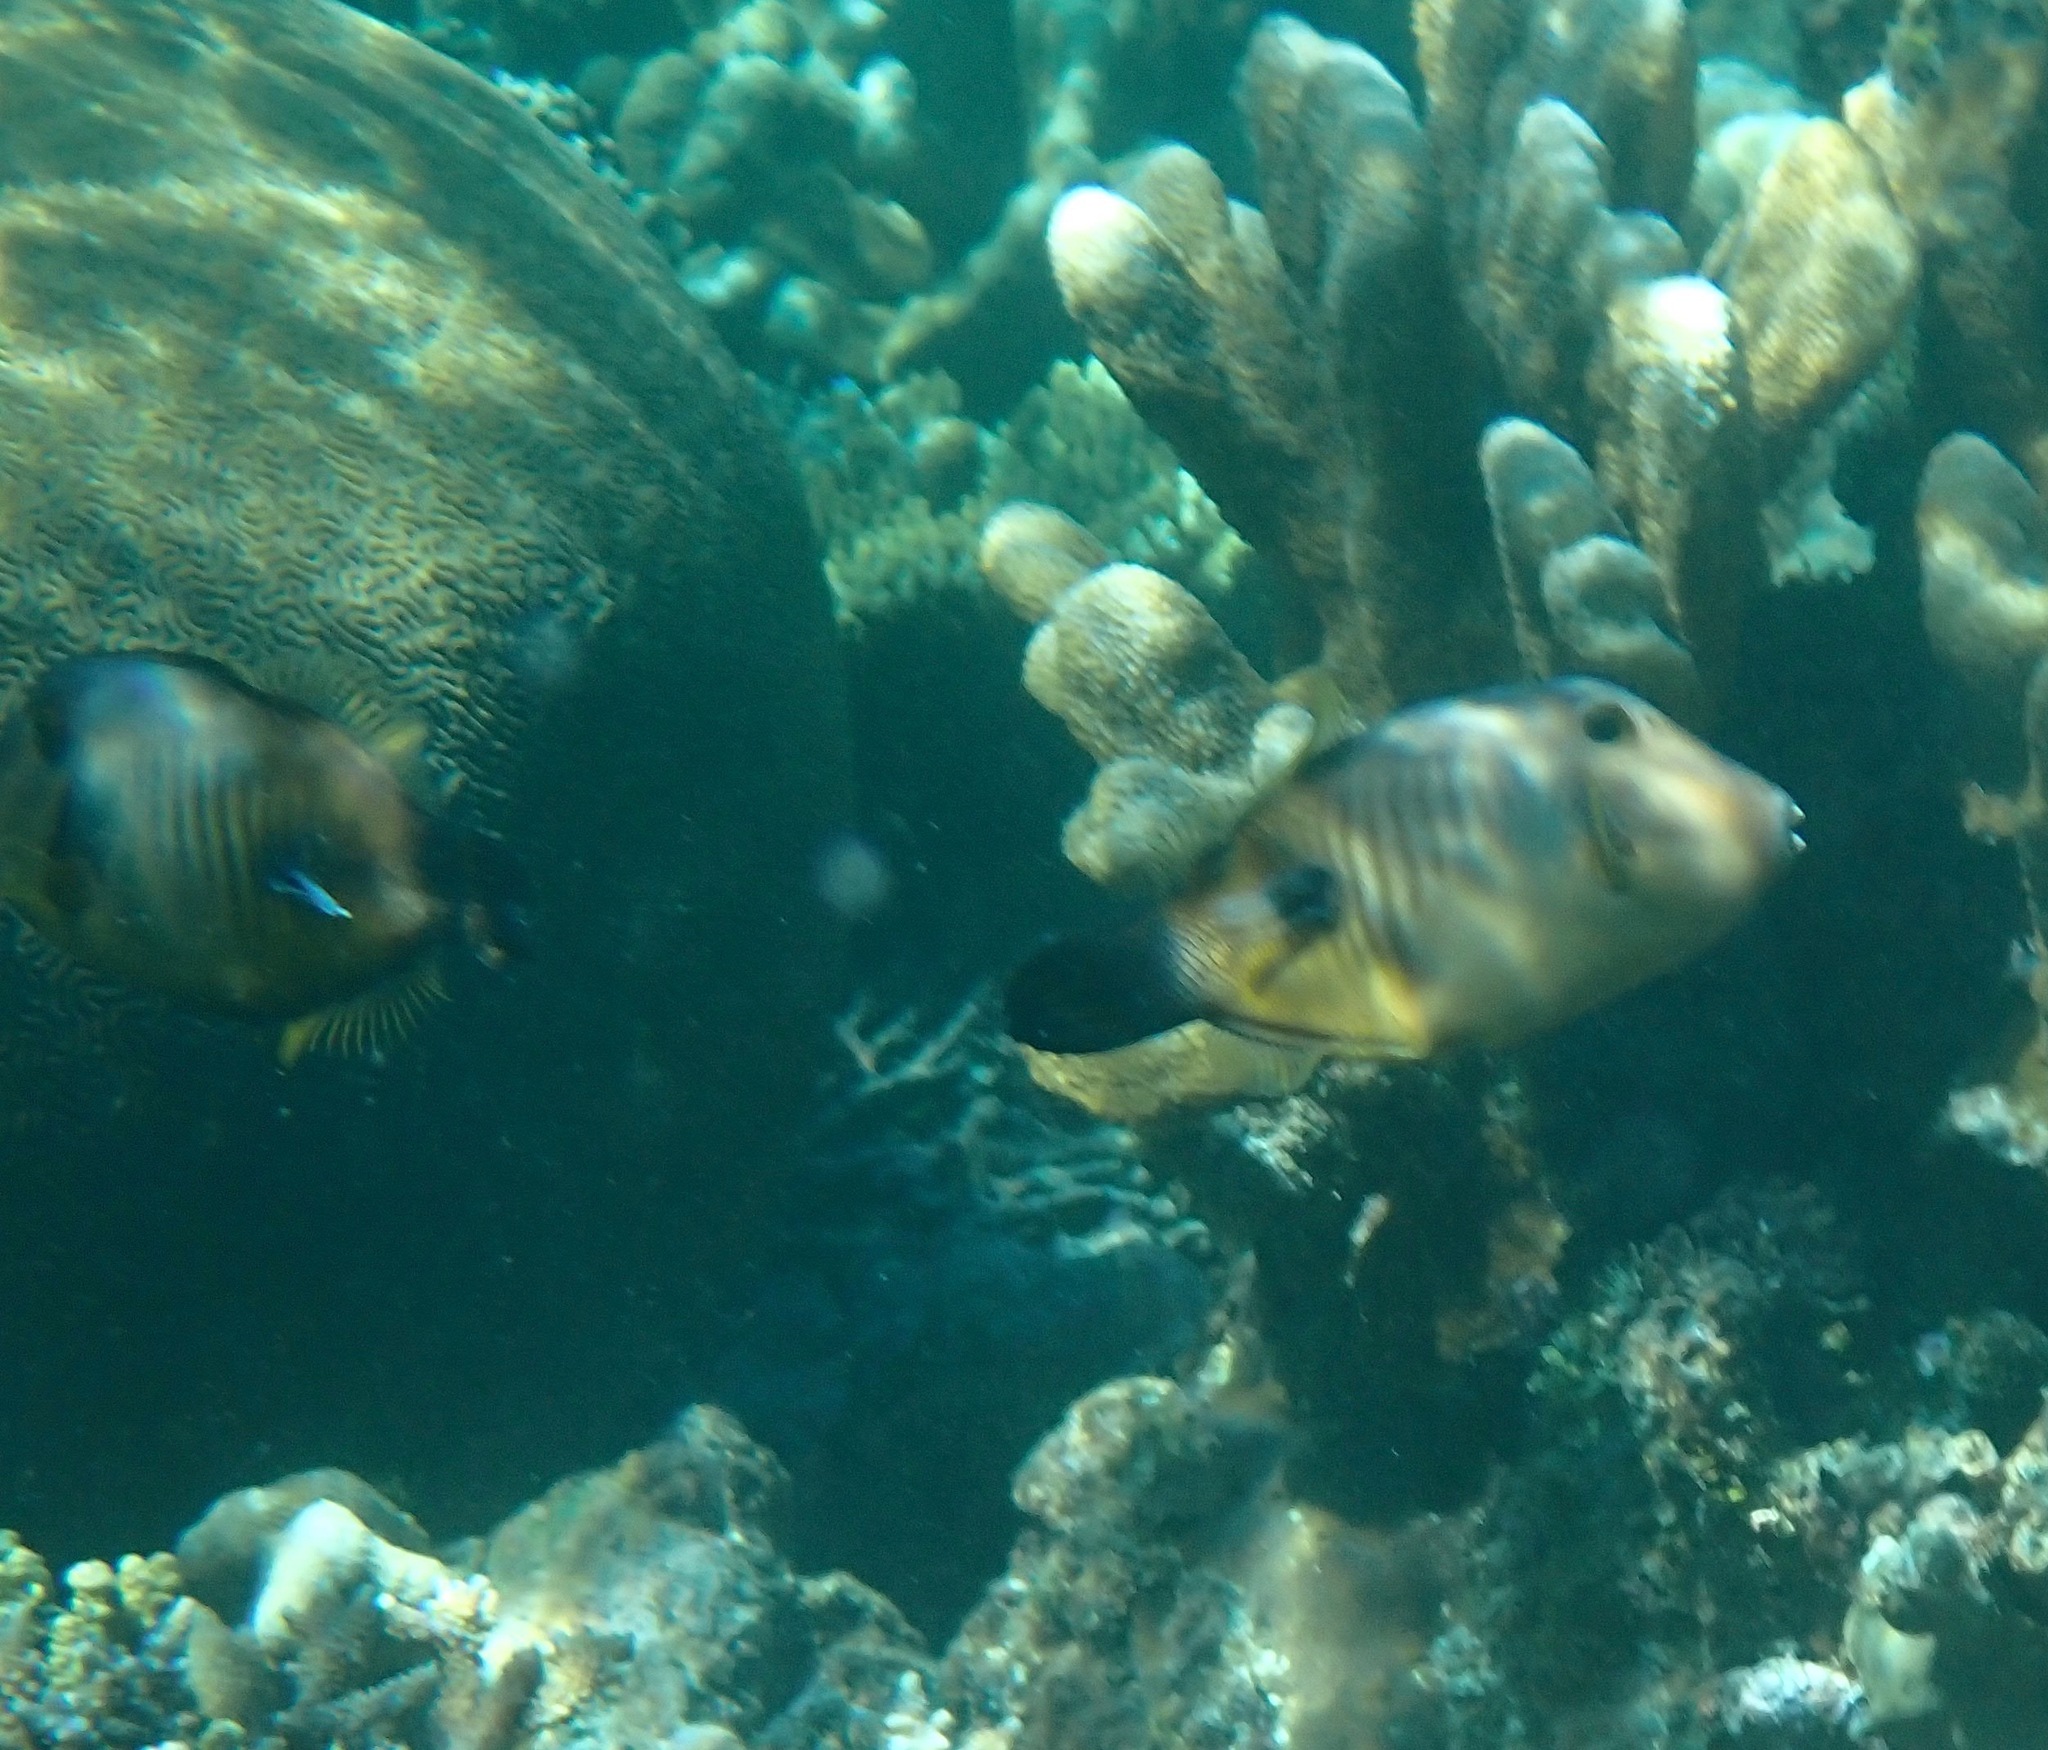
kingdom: Animalia
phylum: Chordata
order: Tetraodontiformes
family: Monacanthidae
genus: Amanses
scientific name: Amanses scopas
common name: Broom filefish
